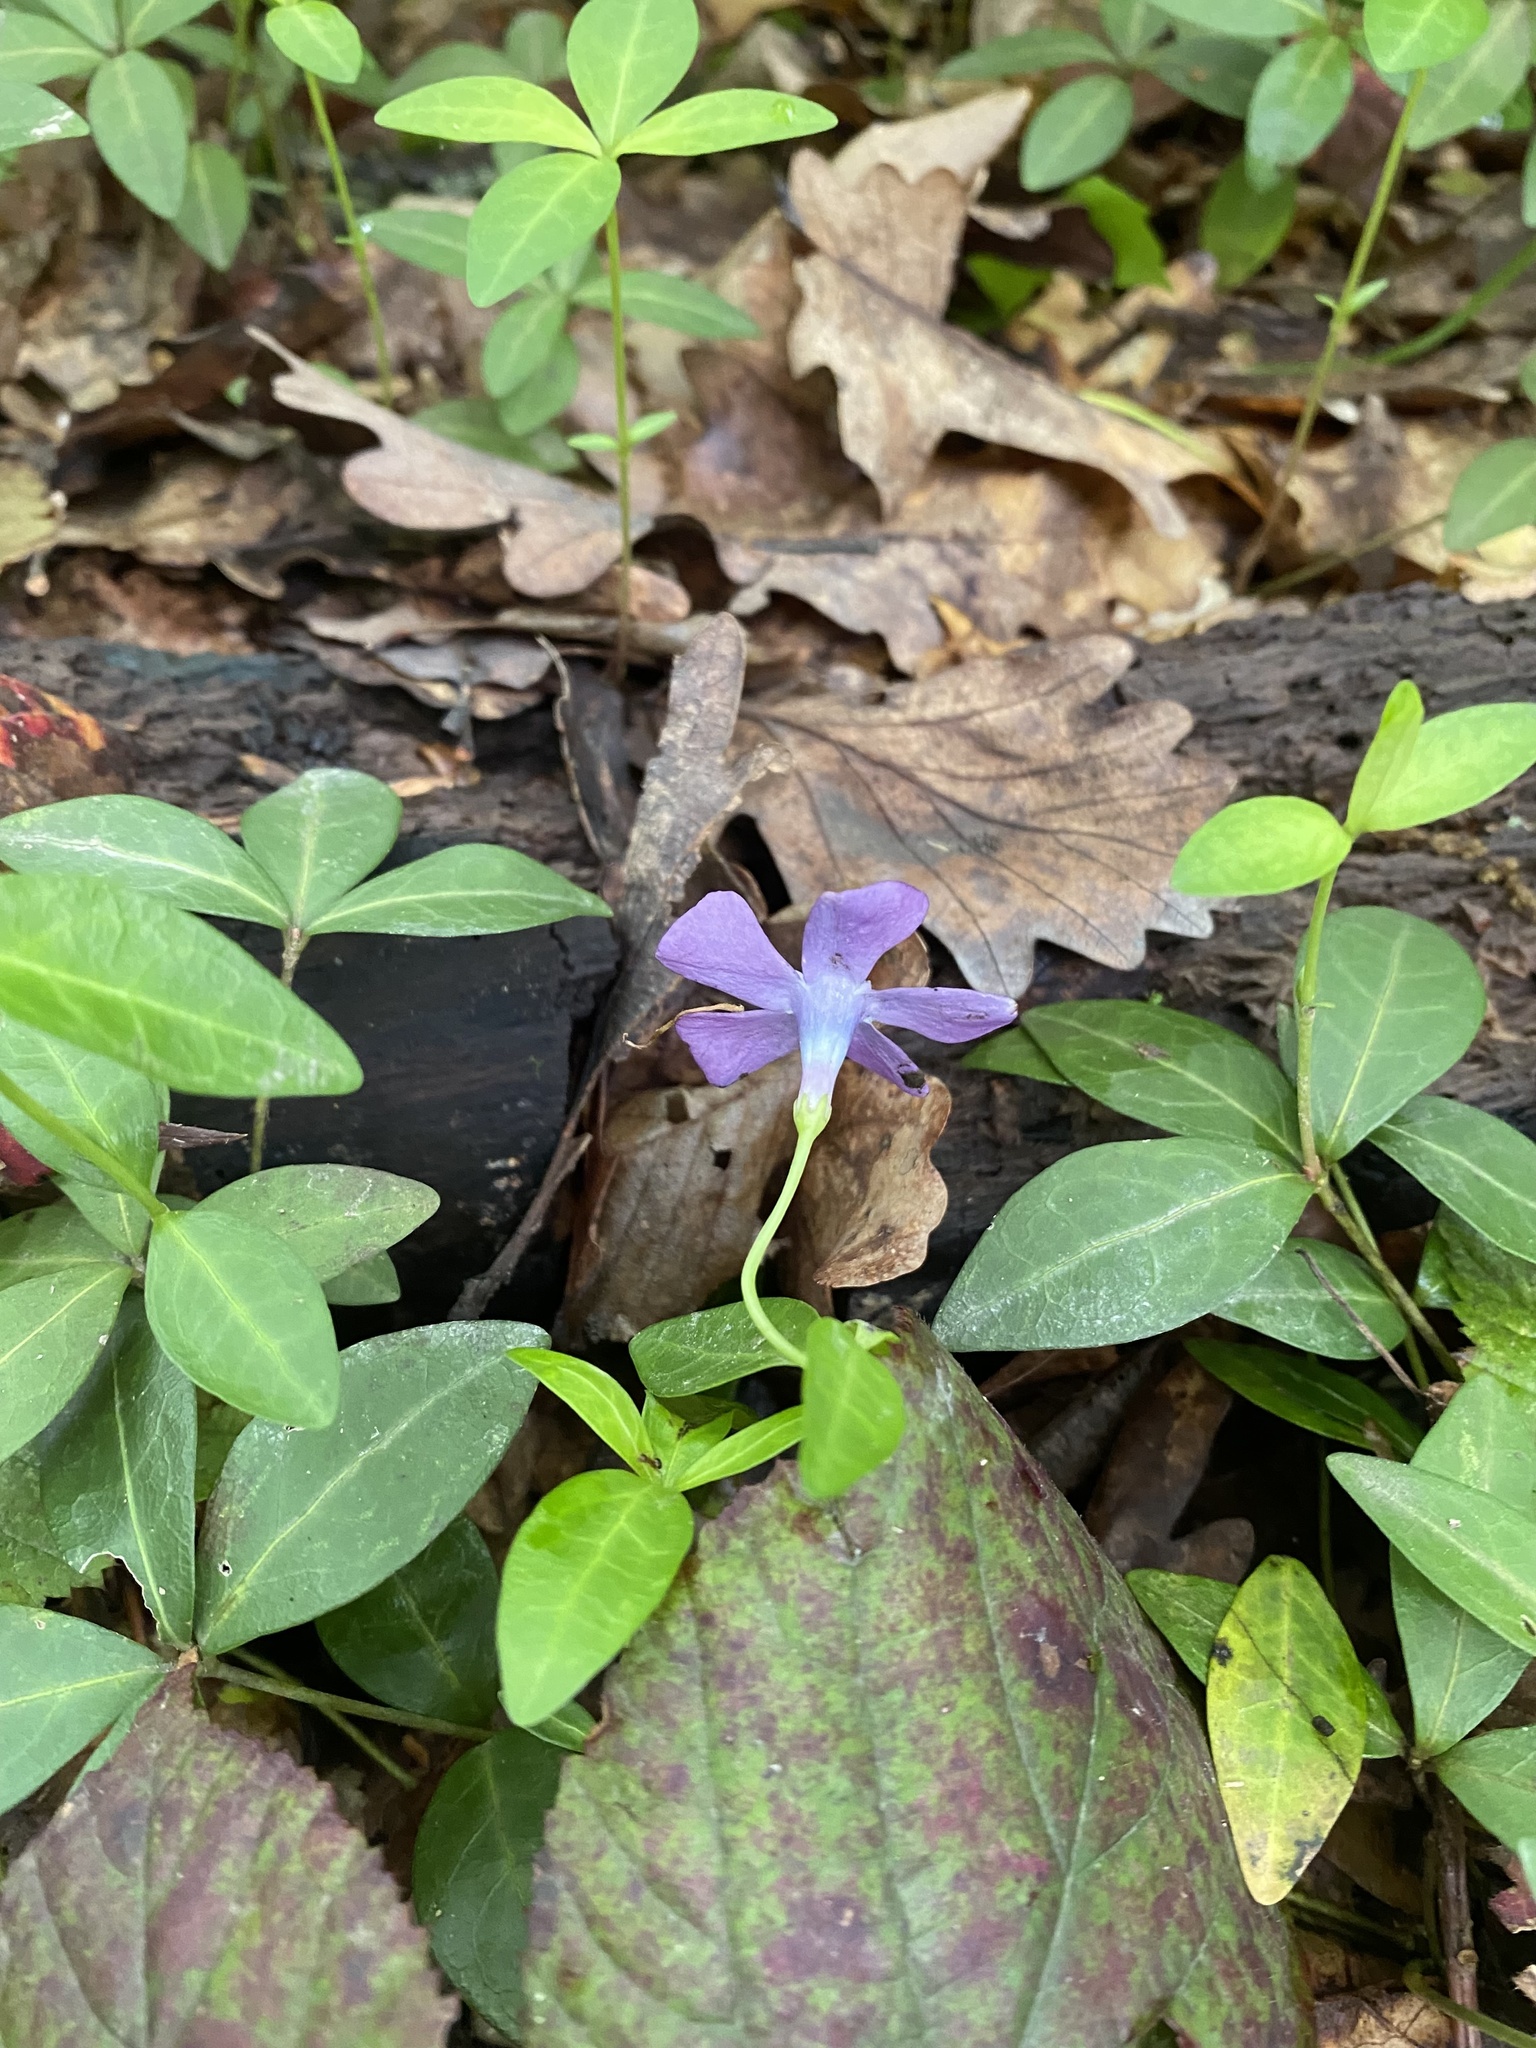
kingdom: Plantae
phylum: Tracheophyta
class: Magnoliopsida
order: Gentianales
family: Apocynaceae
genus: Vinca
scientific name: Vinca minor
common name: Lesser periwinkle
